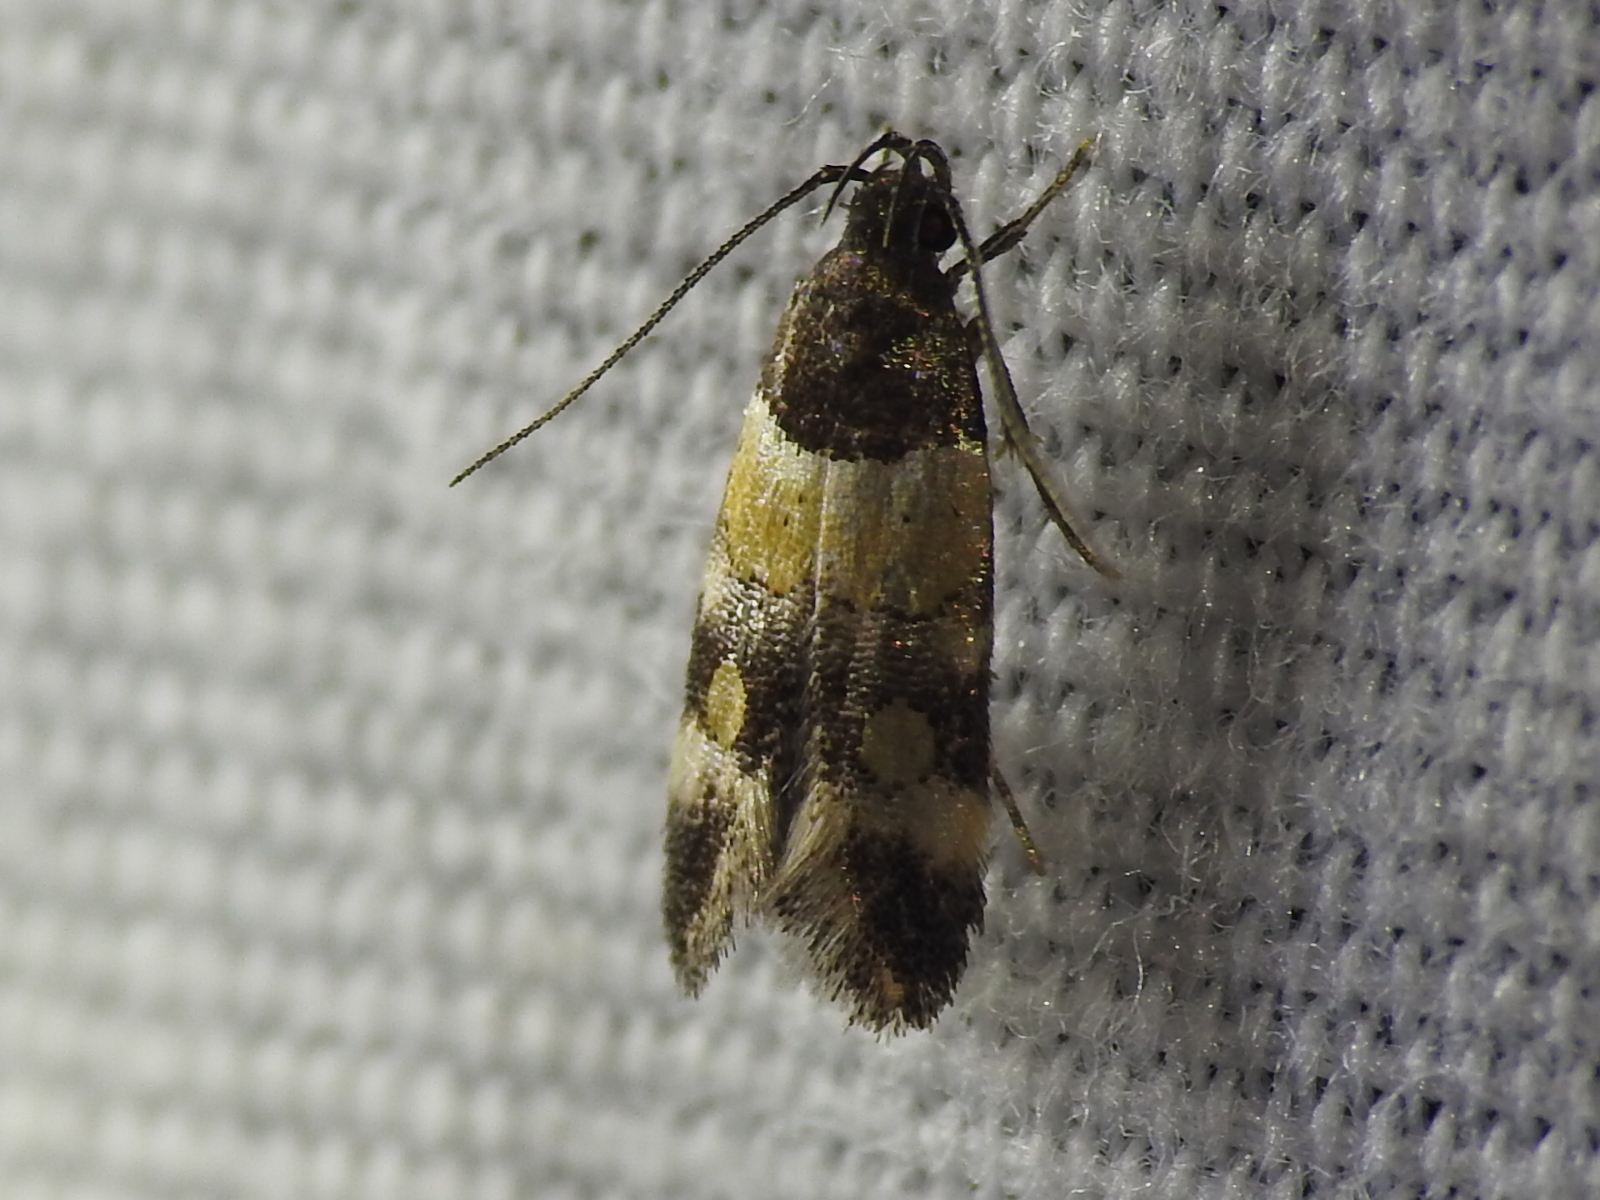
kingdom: Animalia
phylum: Arthropoda
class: Insecta
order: Lepidoptera
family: Momphidae
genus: Triclonella
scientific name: Triclonella determinatella
